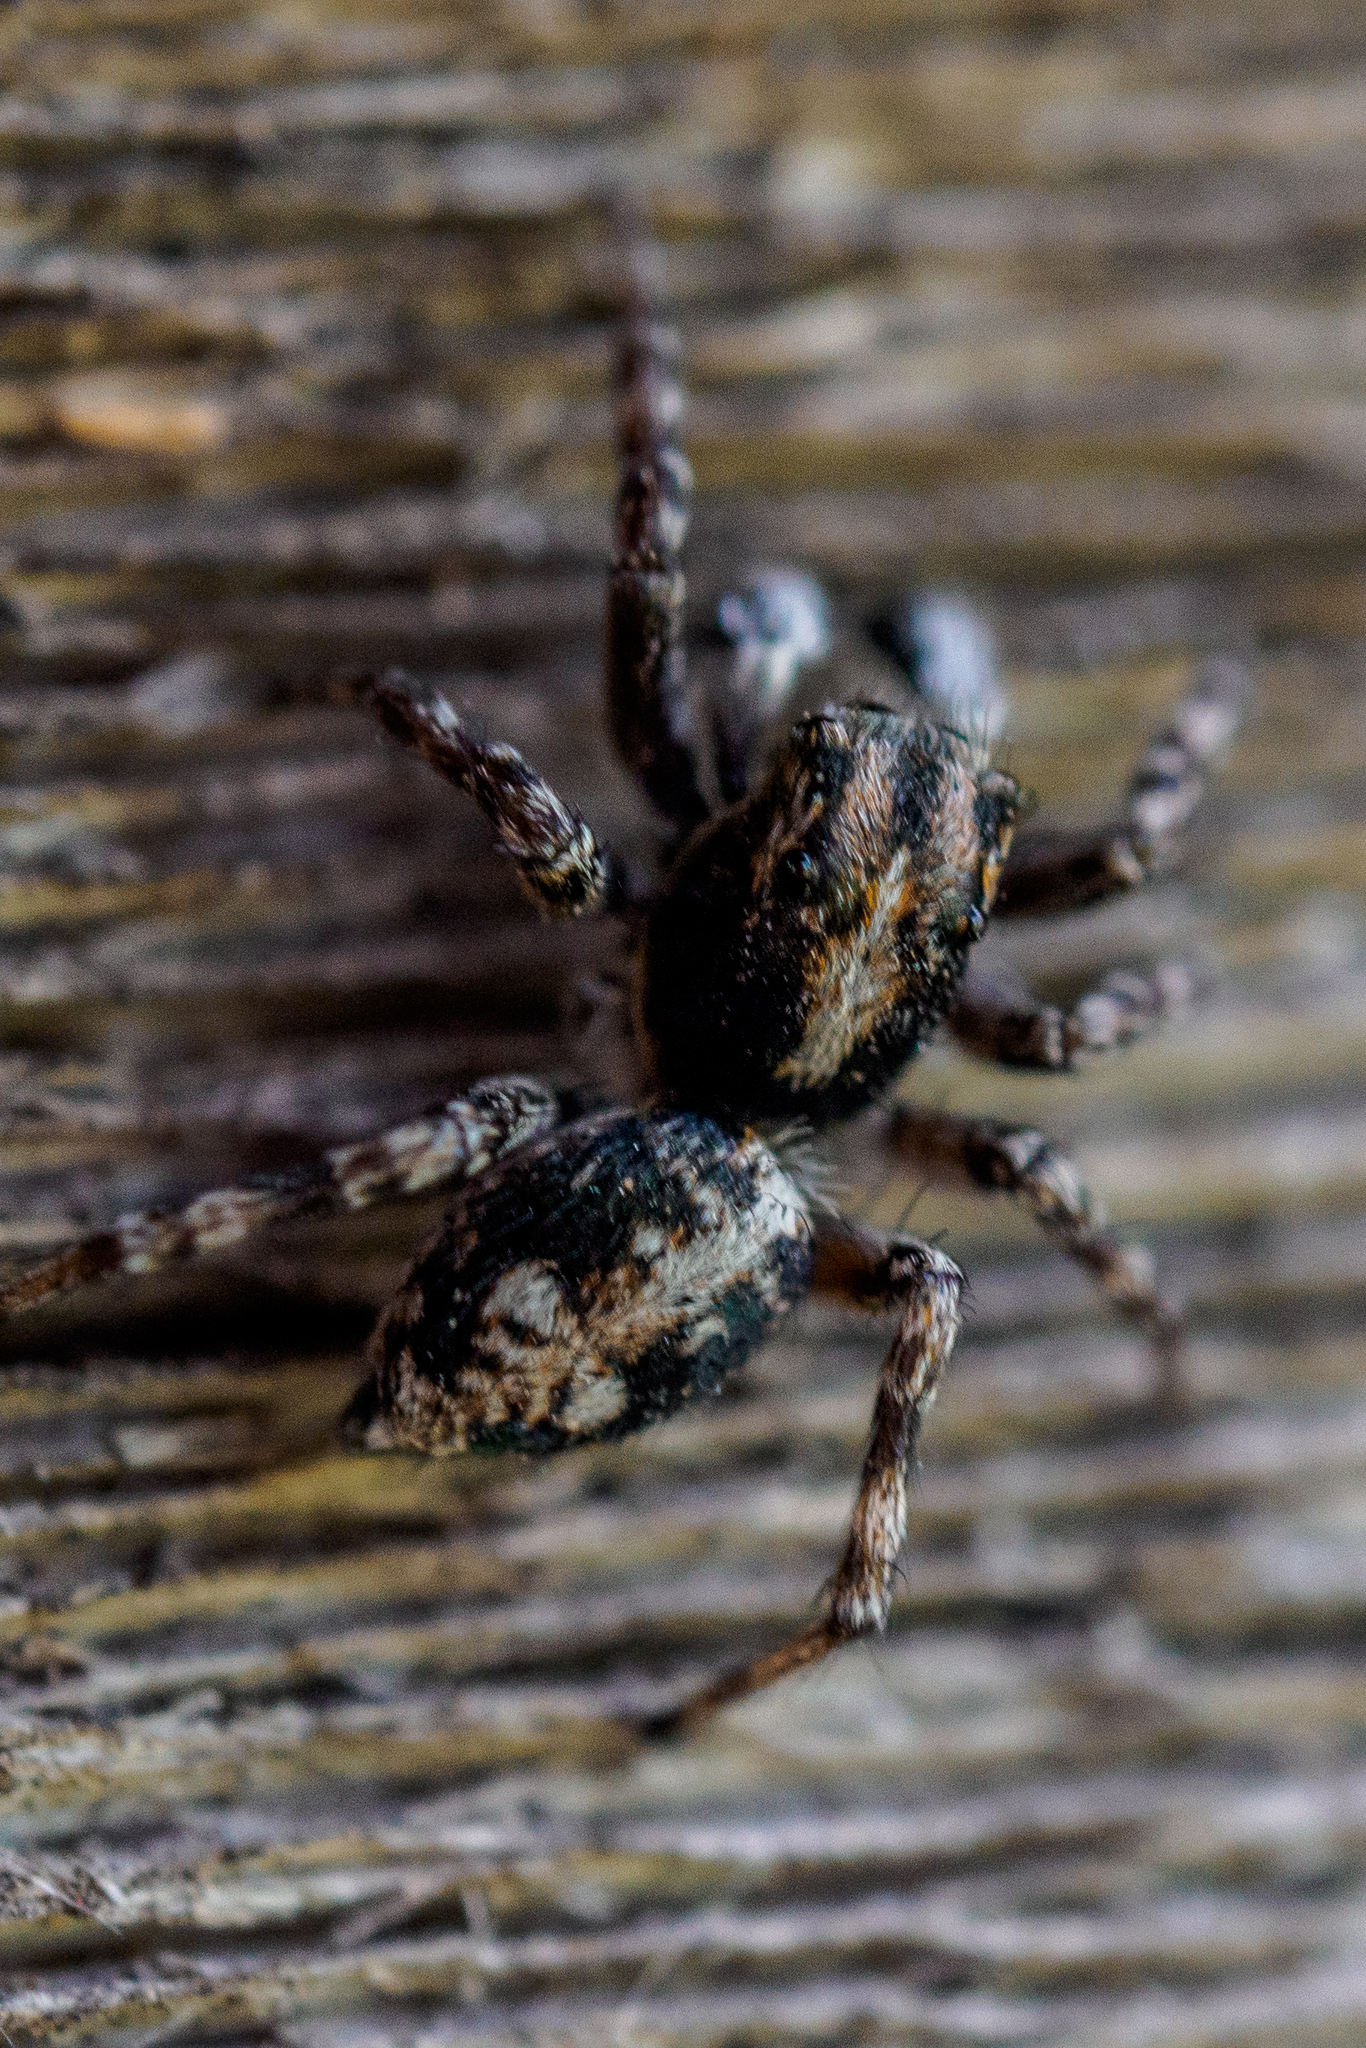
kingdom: Animalia
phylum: Arthropoda
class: Arachnida
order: Araneae
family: Salticidae
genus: Attulus
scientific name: Attulus terebratus
